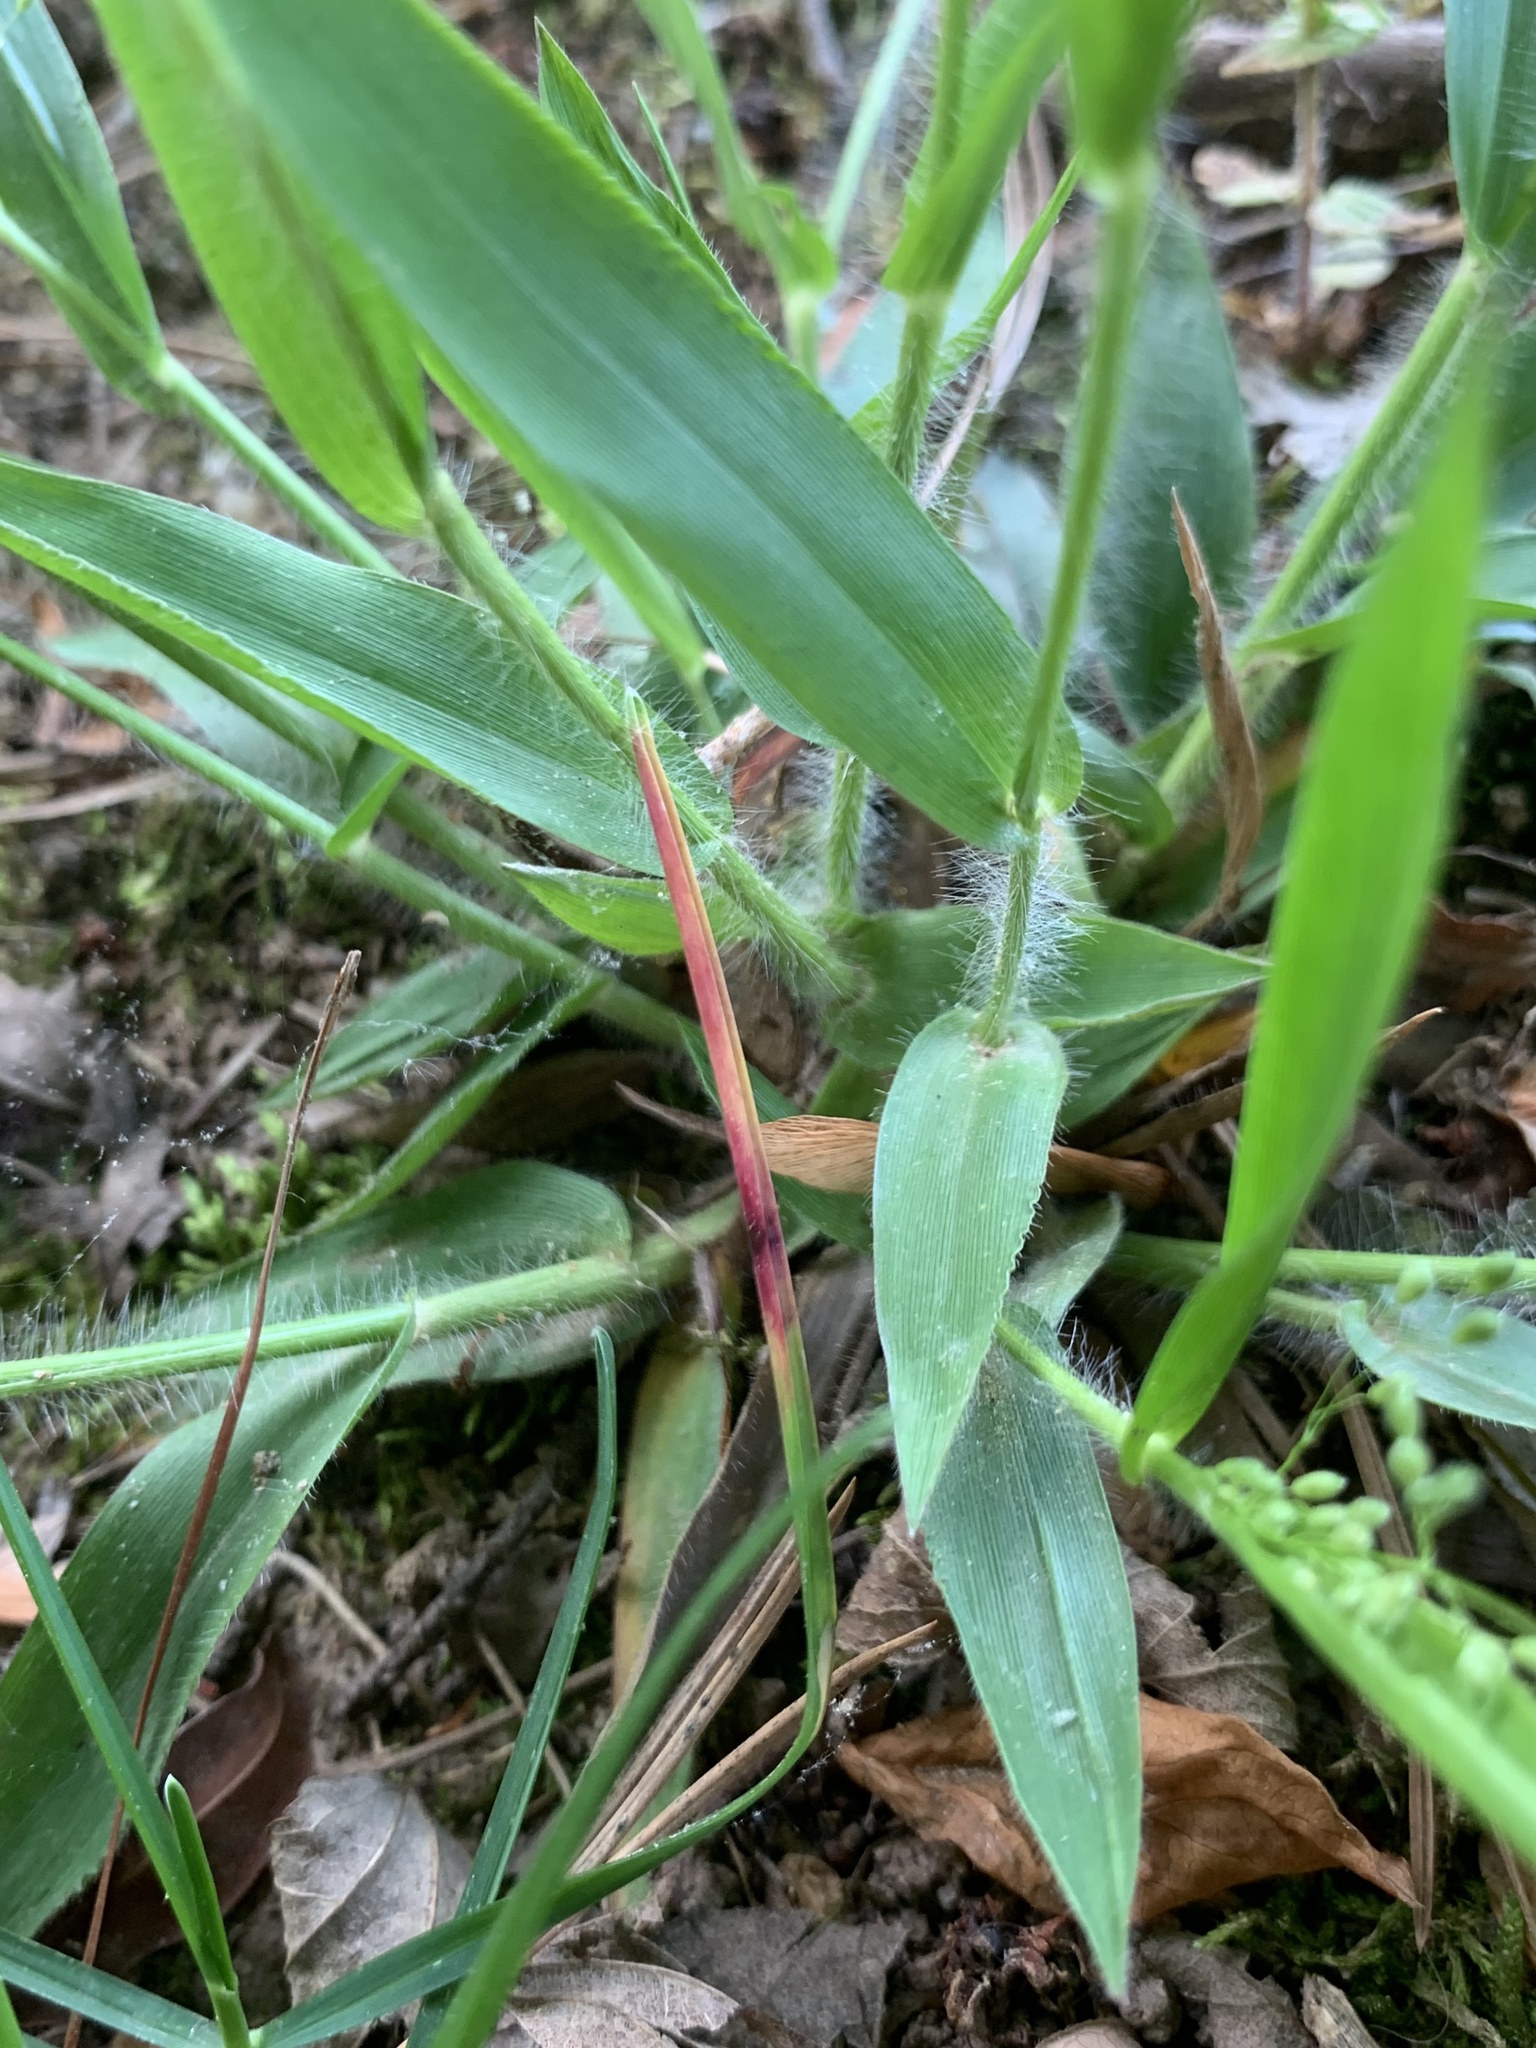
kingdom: Plantae
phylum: Tracheophyta
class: Liliopsida
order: Poales
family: Poaceae
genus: Dichanthelium
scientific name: Dichanthelium laxiflorum
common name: Soft-tuft panic grass
